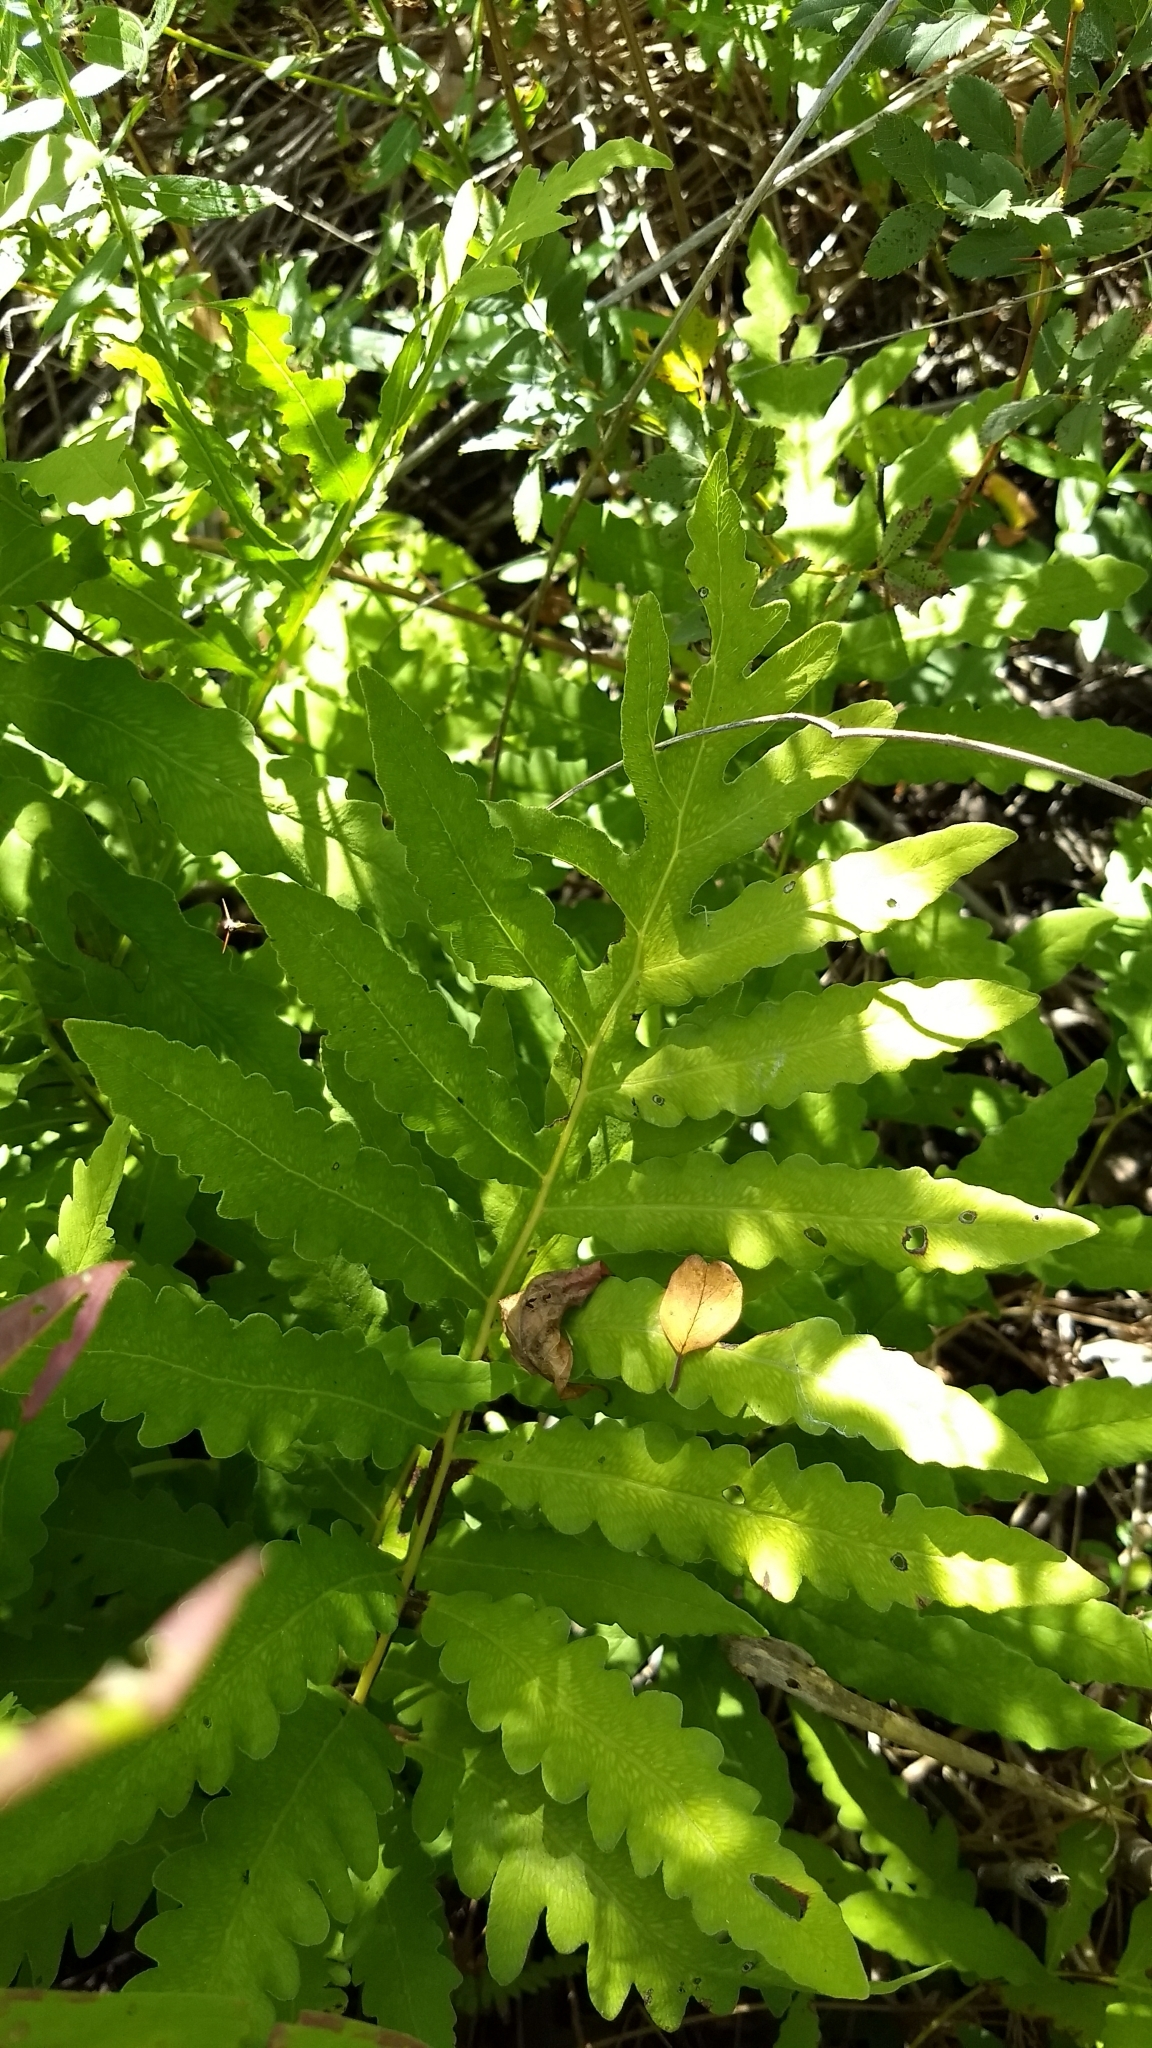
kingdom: Plantae
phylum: Tracheophyta
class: Polypodiopsida
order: Polypodiales
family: Onocleaceae
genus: Onoclea
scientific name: Onoclea sensibilis
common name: Sensitive fern
